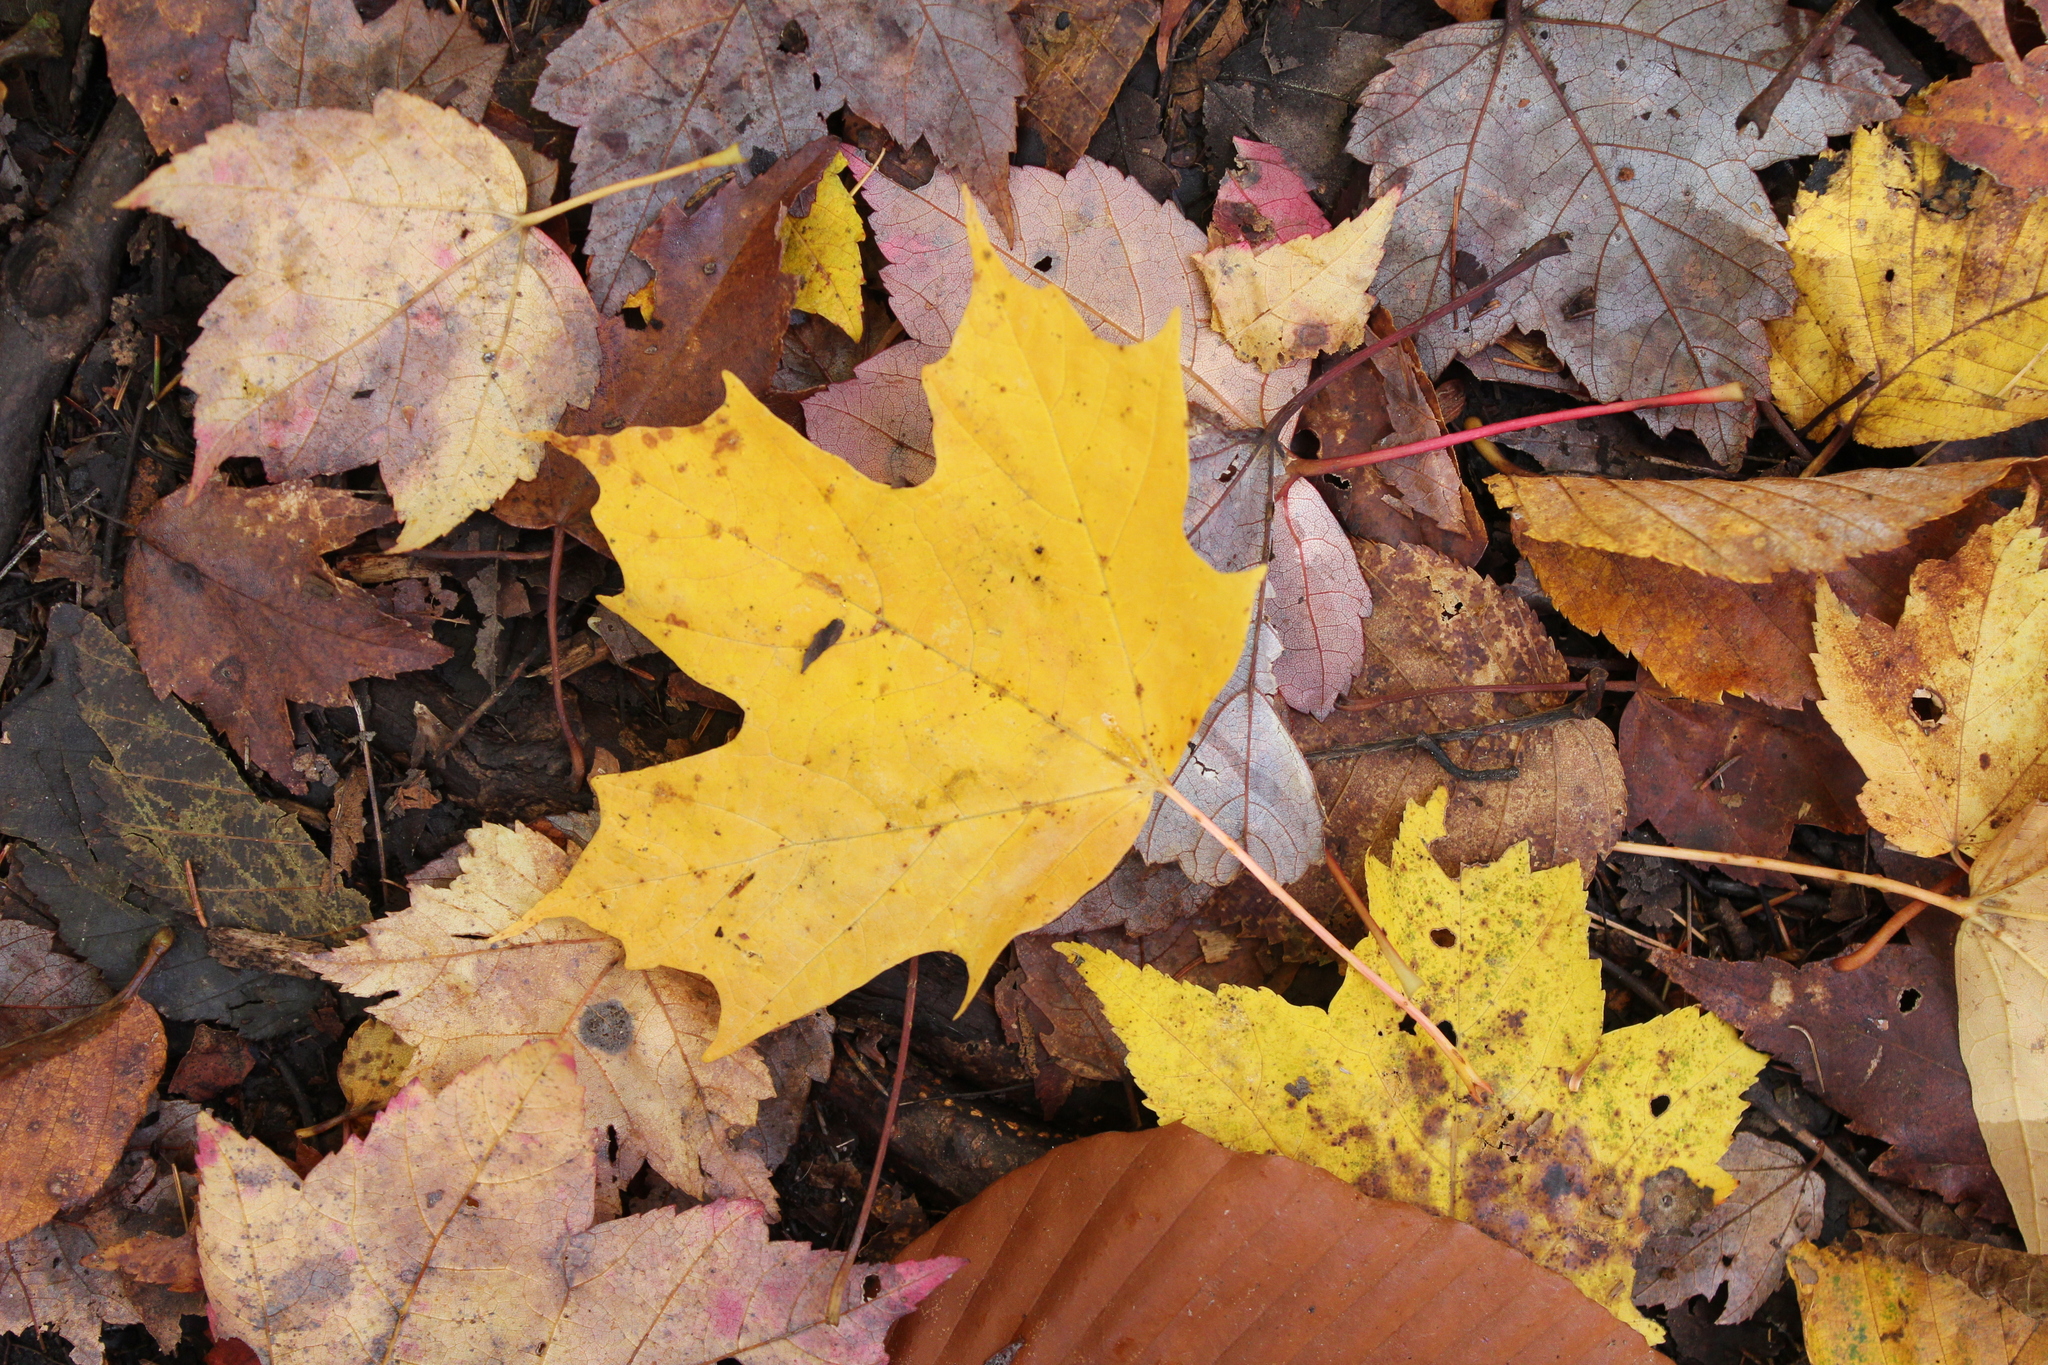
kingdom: Plantae
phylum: Tracheophyta
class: Magnoliopsida
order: Sapindales
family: Sapindaceae
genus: Acer
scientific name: Acer saccharum
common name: Sugar maple
